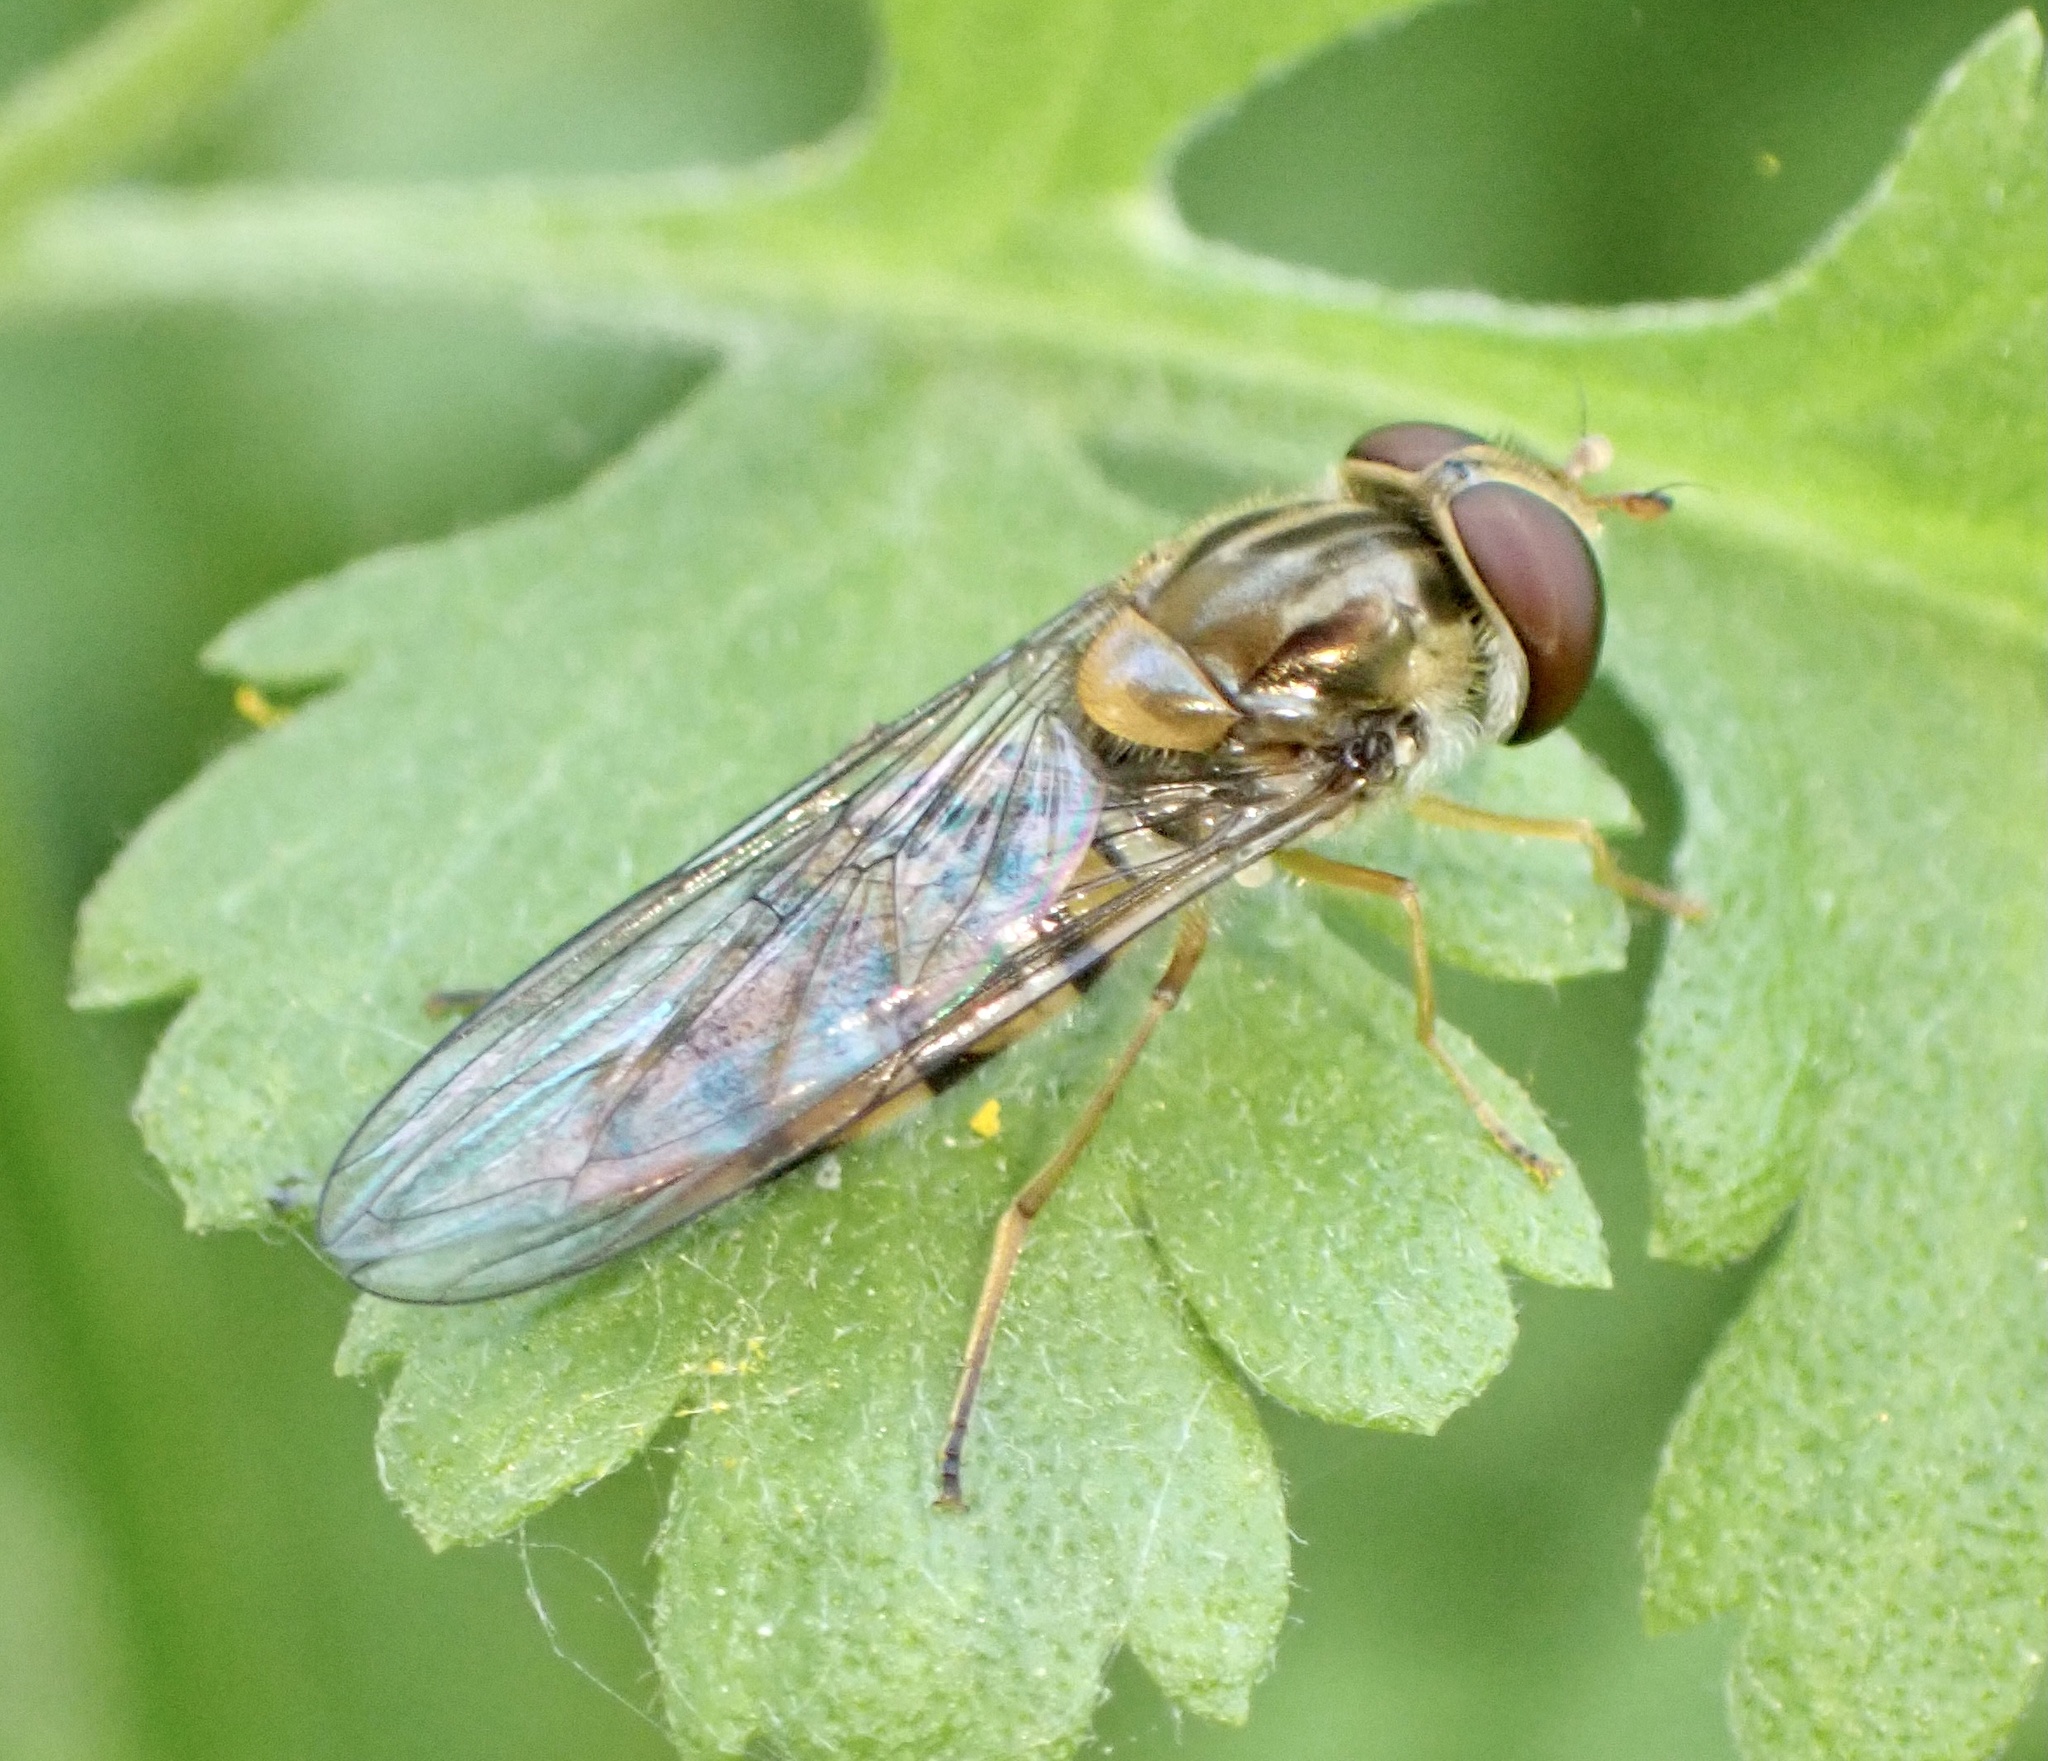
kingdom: Animalia
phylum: Arthropoda
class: Insecta
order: Diptera
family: Syrphidae
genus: Episyrphus
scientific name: Episyrphus balteatus
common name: Marmalade hoverfly
